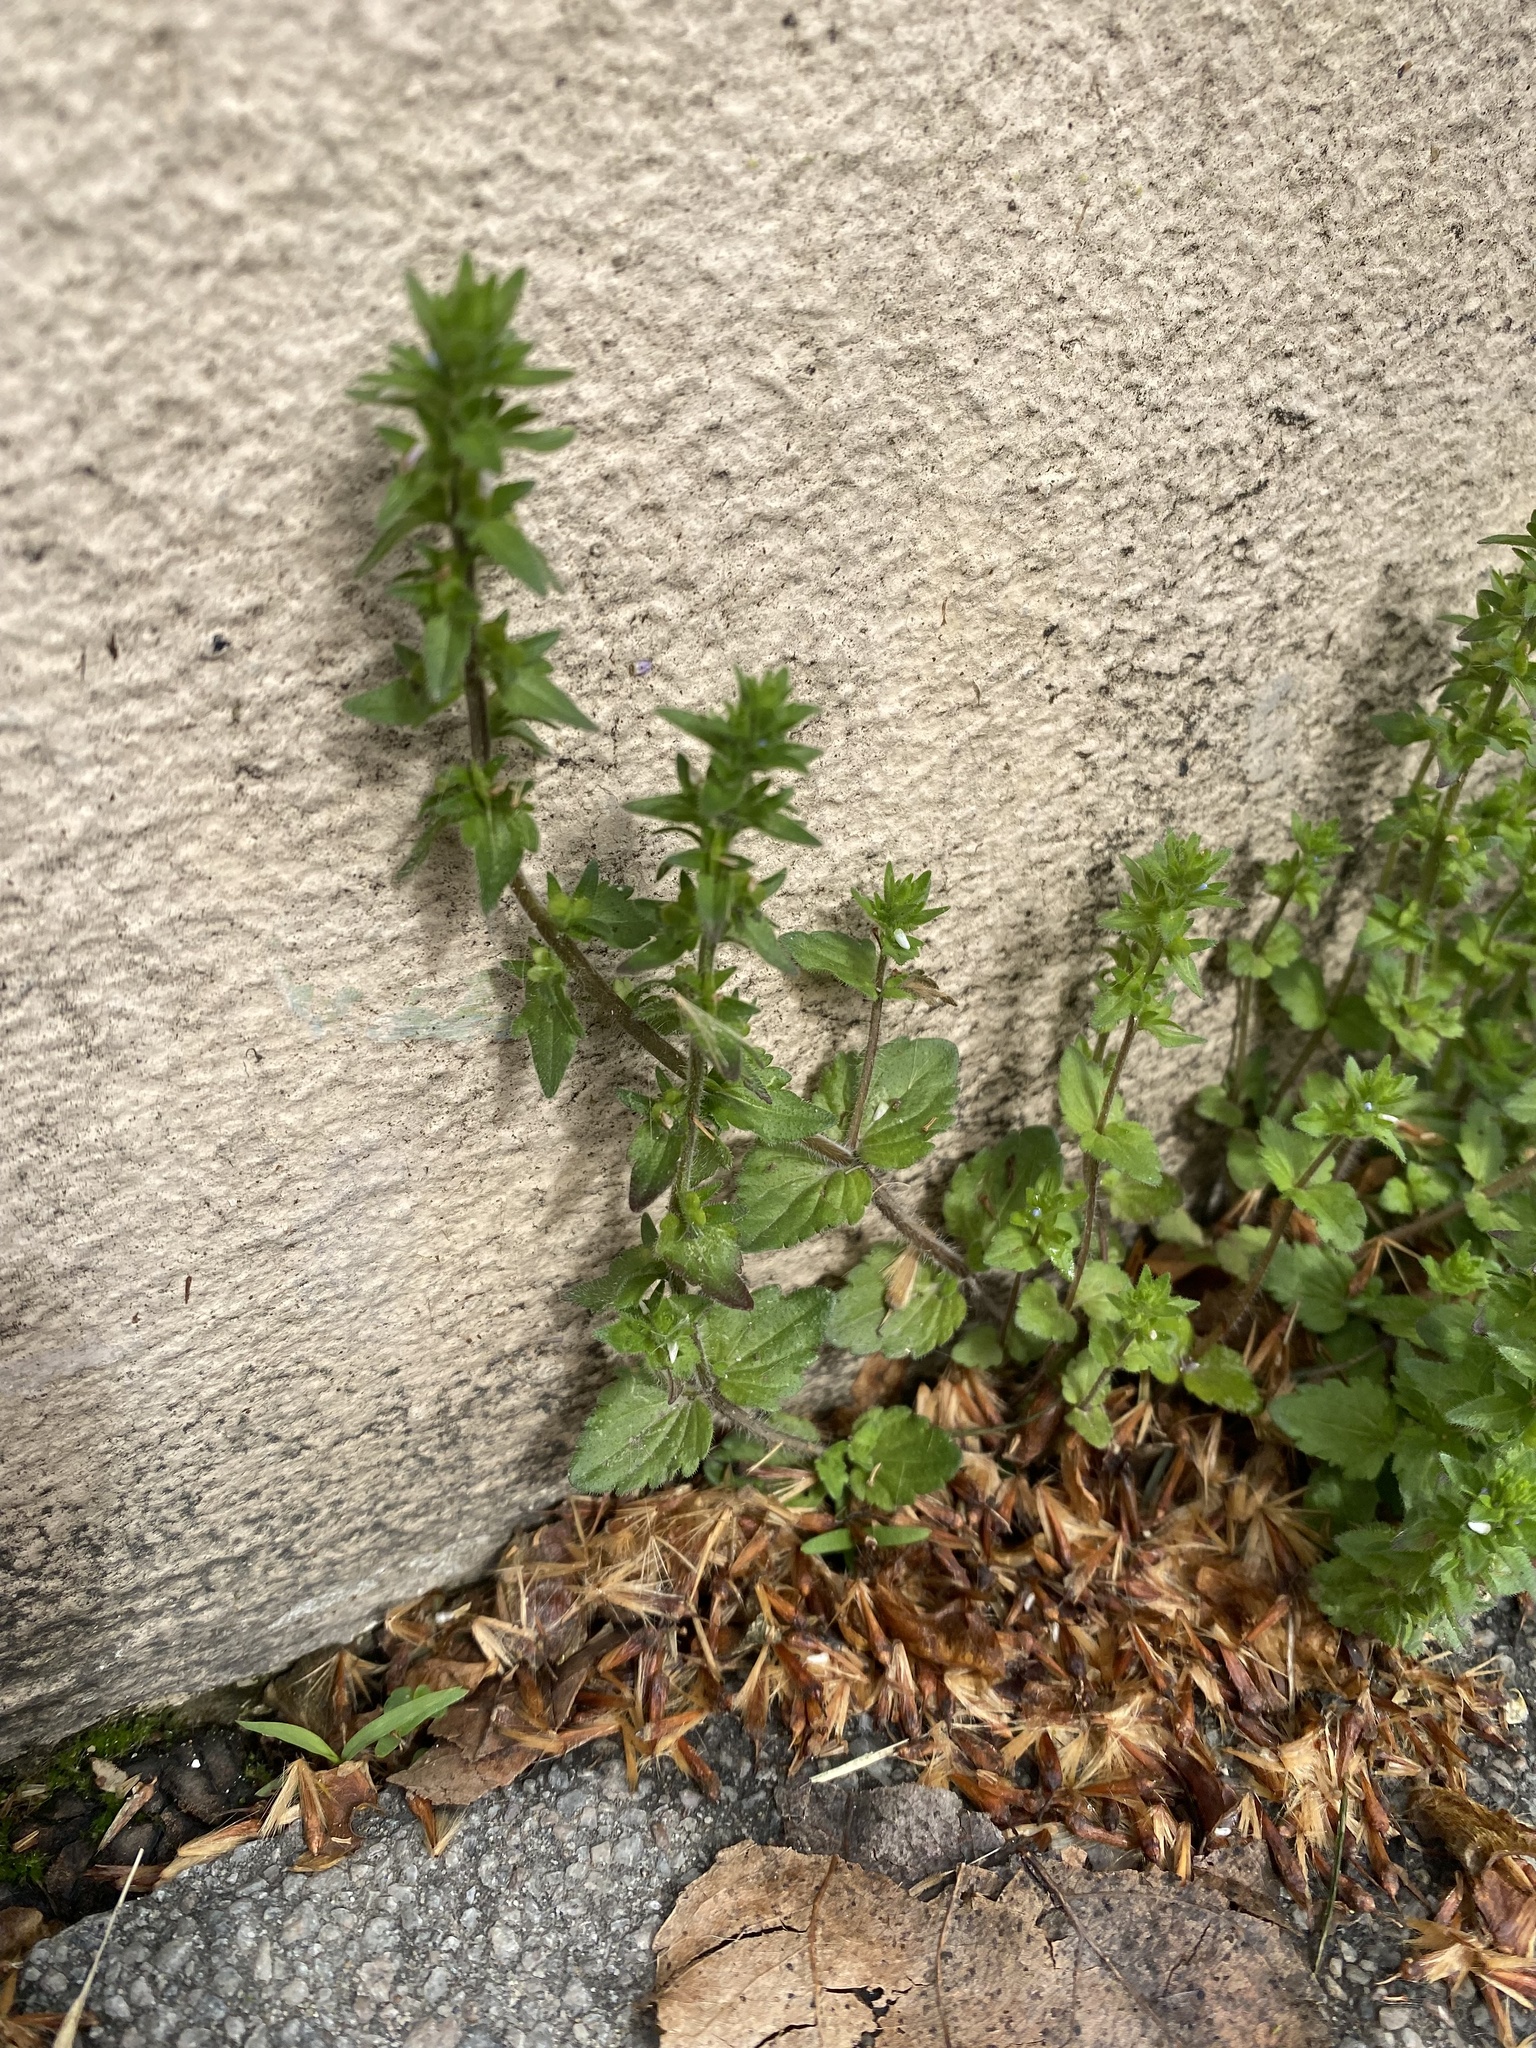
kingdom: Plantae
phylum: Tracheophyta
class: Magnoliopsida
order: Lamiales
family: Plantaginaceae
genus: Veronica
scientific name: Veronica arvensis
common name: Corn speedwell
